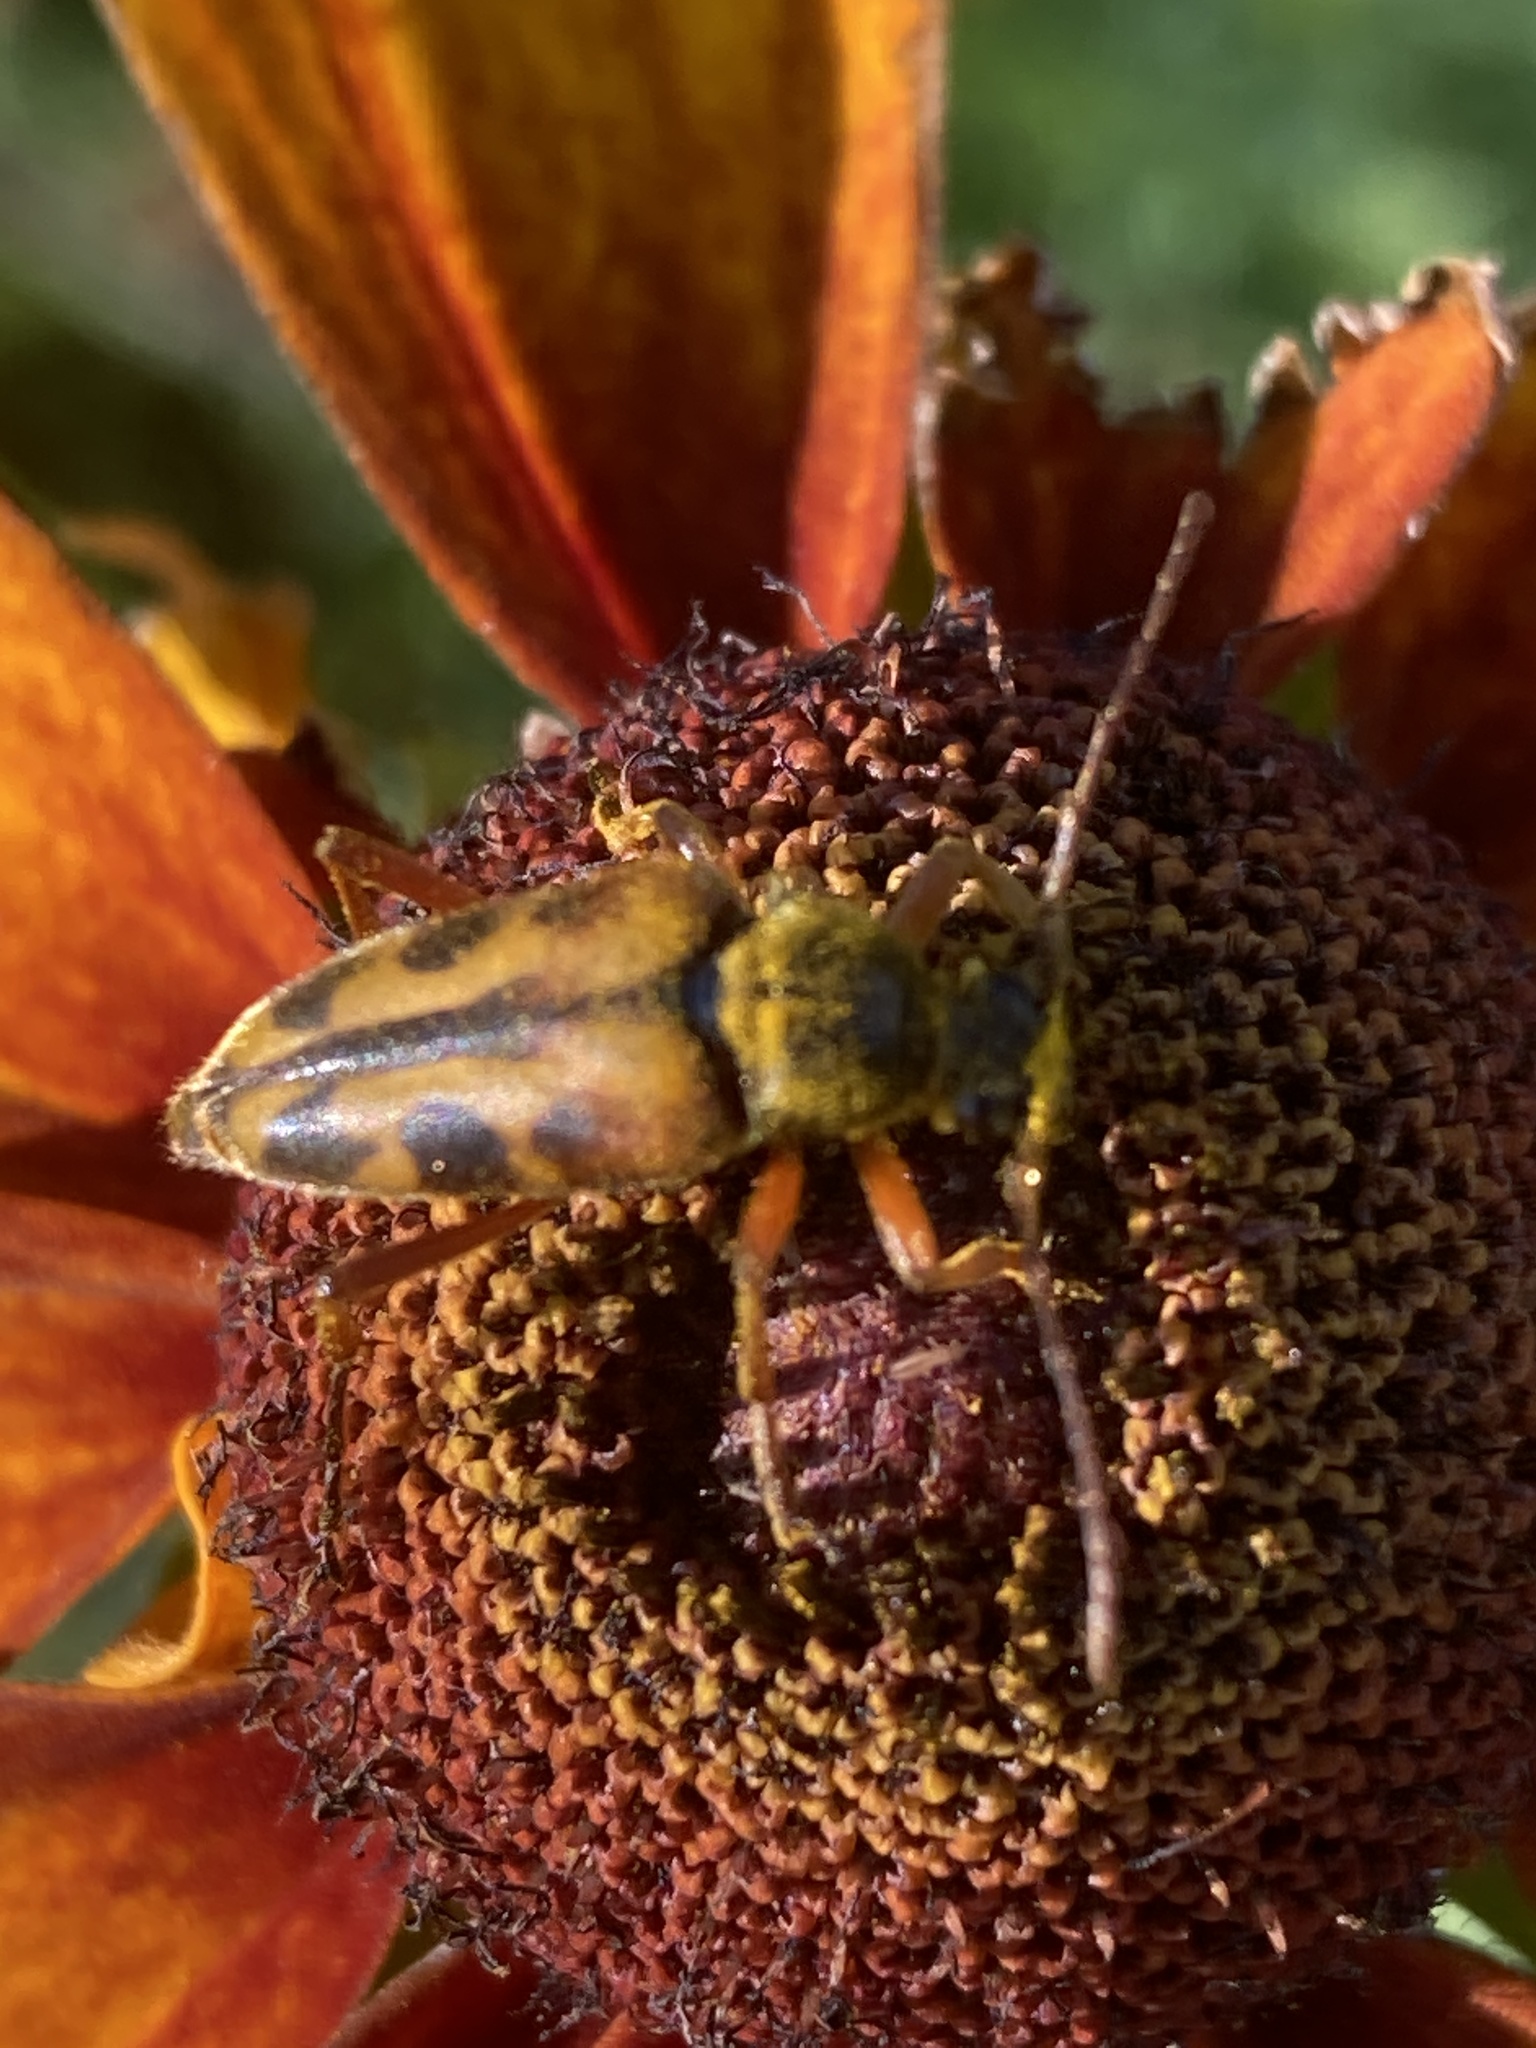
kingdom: Animalia
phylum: Arthropoda
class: Insecta
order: Coleoptera
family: Cerambycidae
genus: Typocerus
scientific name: Typocerus octonotatus
